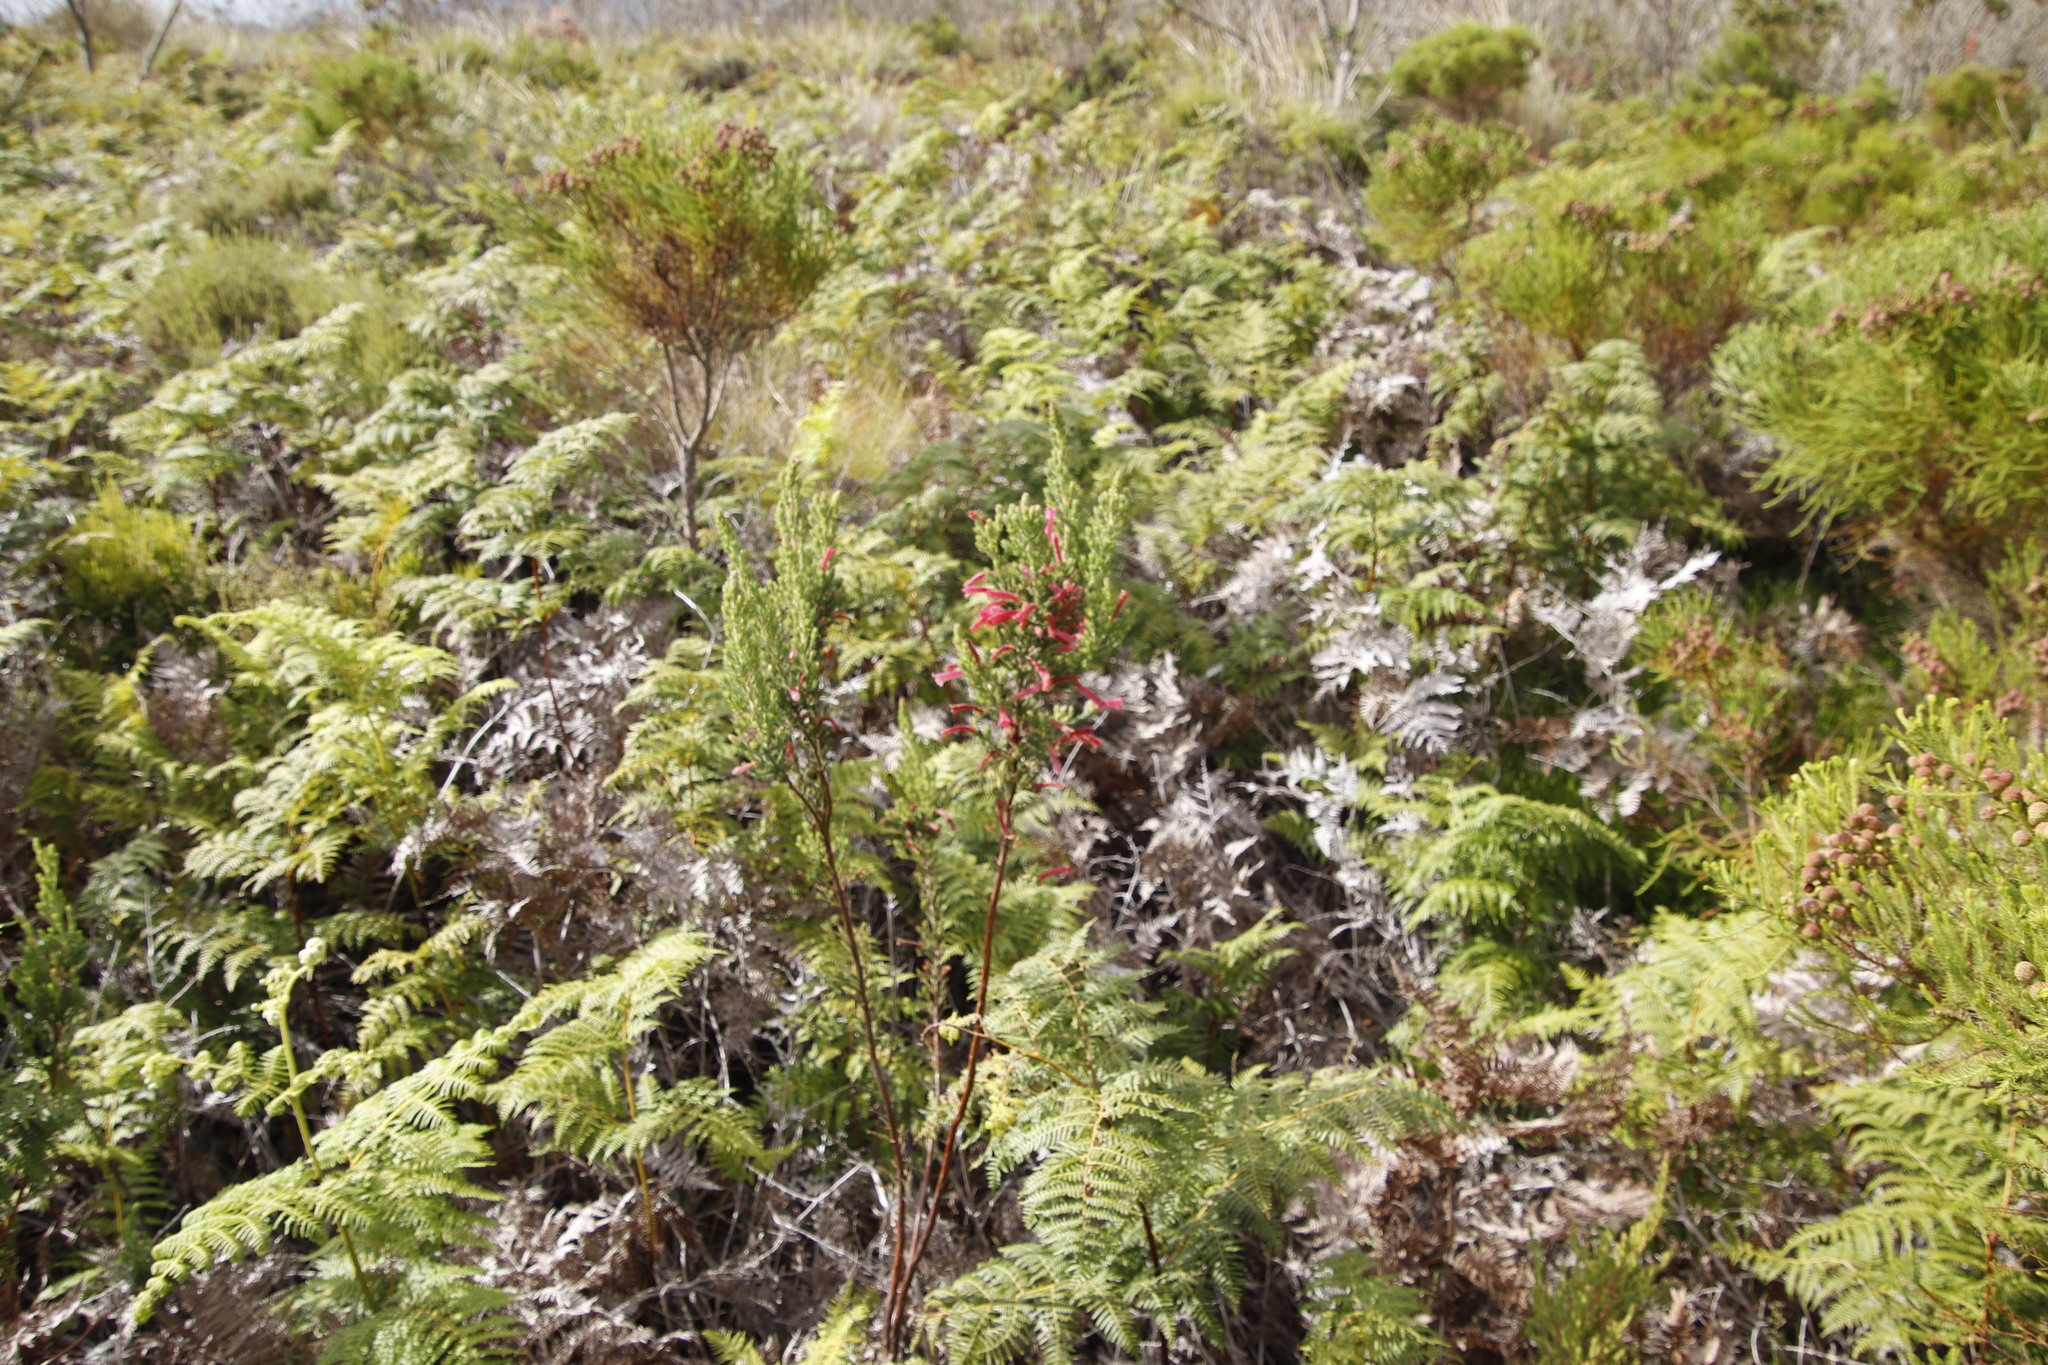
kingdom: Plantae
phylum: Tracheophyta
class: Magnoliopsida
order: Ericales
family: Ericaceae
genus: Erica
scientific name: Erica curviflora
